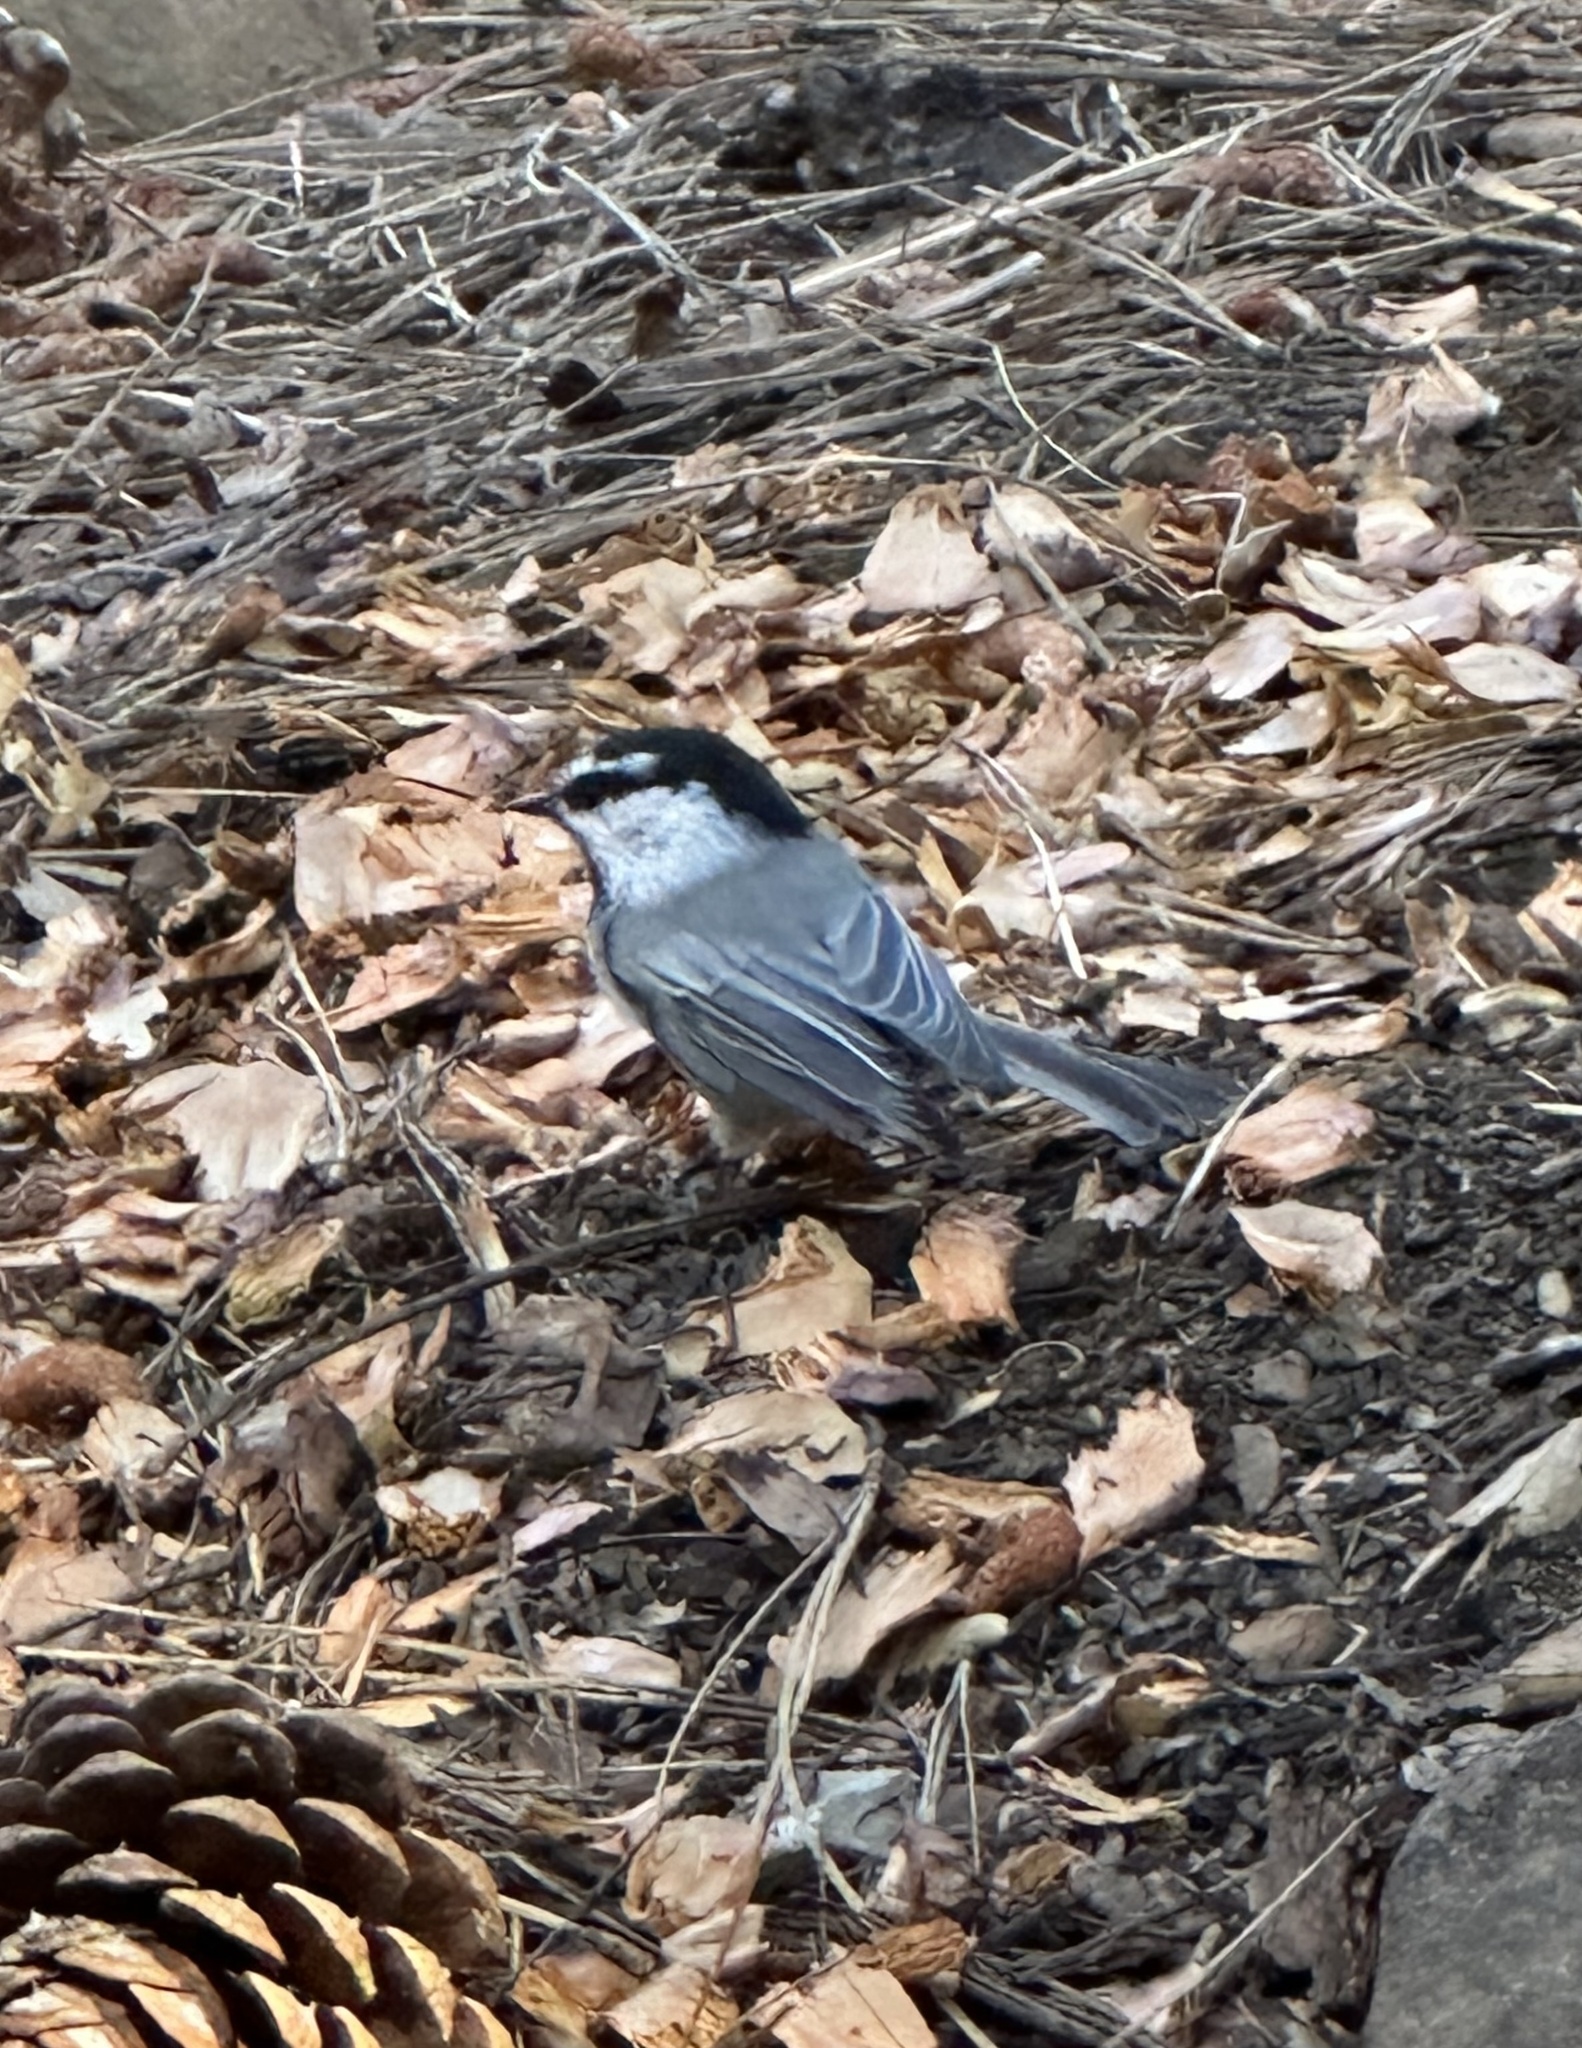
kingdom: Animalia
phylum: Chordata
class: Aves
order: Passeriformes
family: Paridae
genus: Poecile
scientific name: Poecile gambeli
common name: Mountain chickadee
